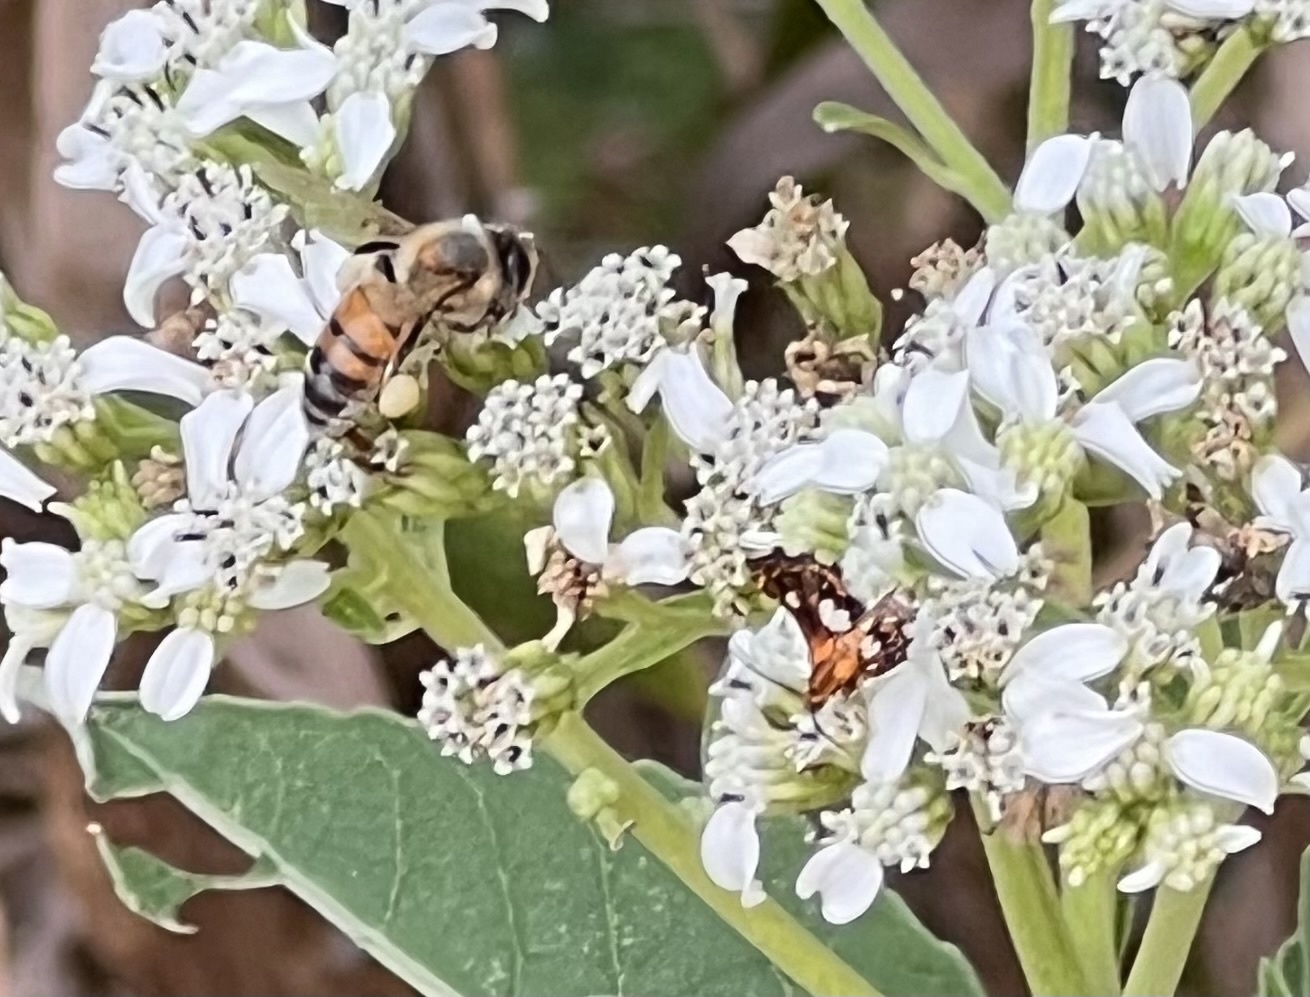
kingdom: Animalia
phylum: Arthropoda
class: Insecta
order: Hymenoptera
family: Apidae
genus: Apis
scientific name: Apis mellifera
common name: Honey bee
